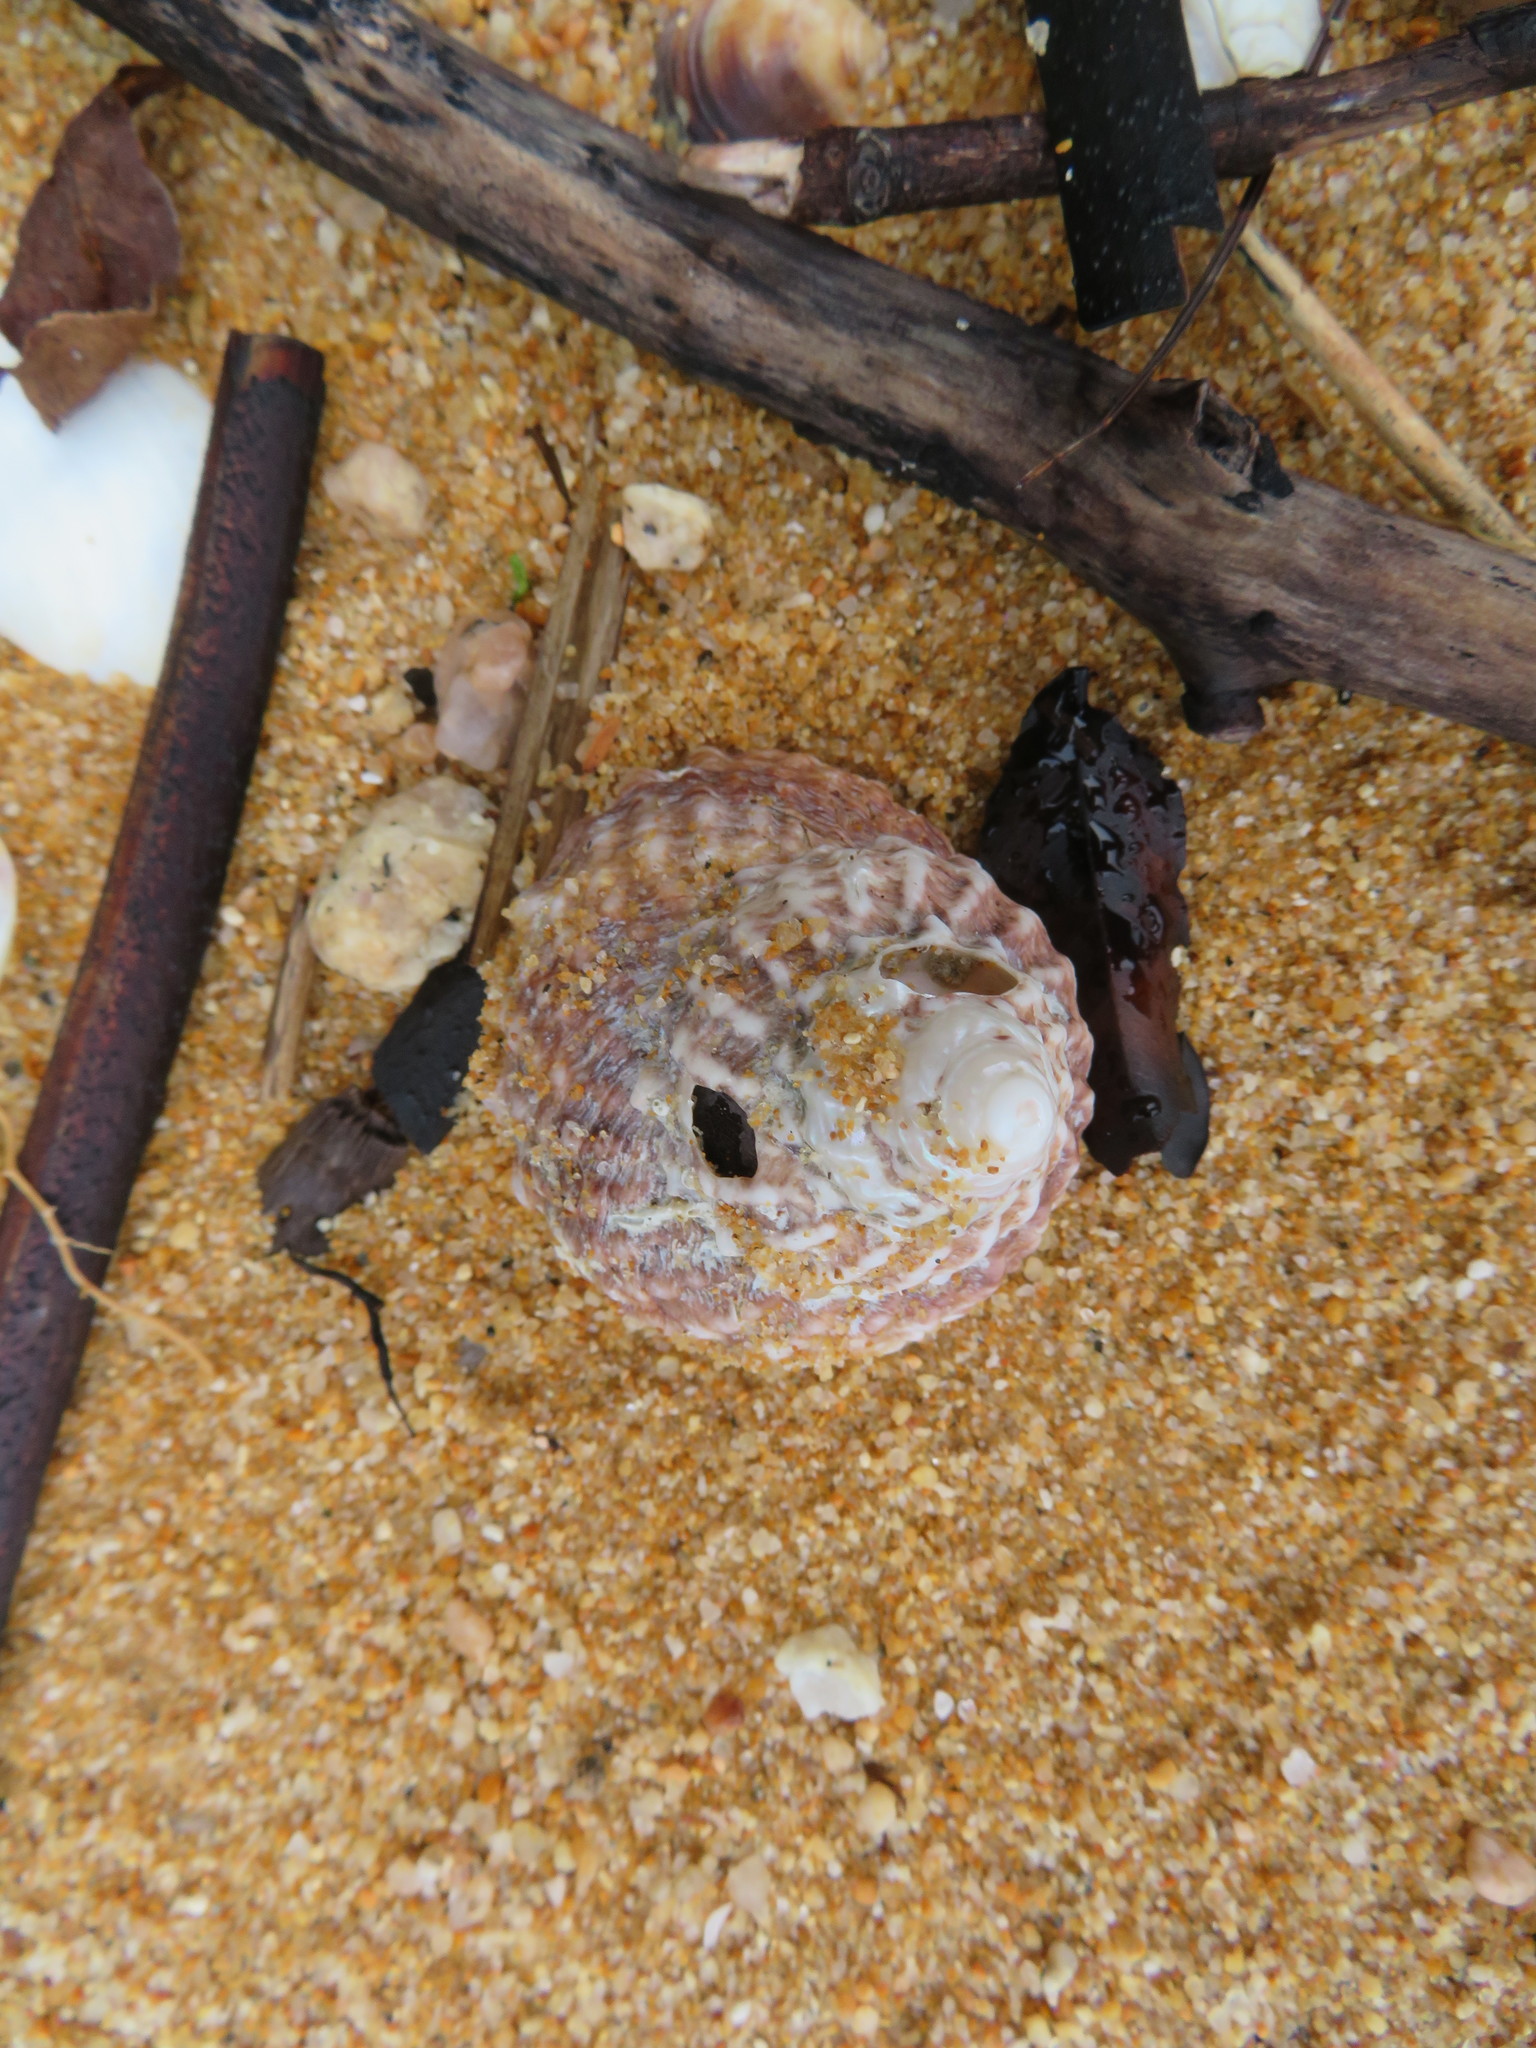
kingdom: Animalia
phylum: Mollusca
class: Gastropoda
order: Trochida
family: Turbinidae
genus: Cookia
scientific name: Cookia sulcata
